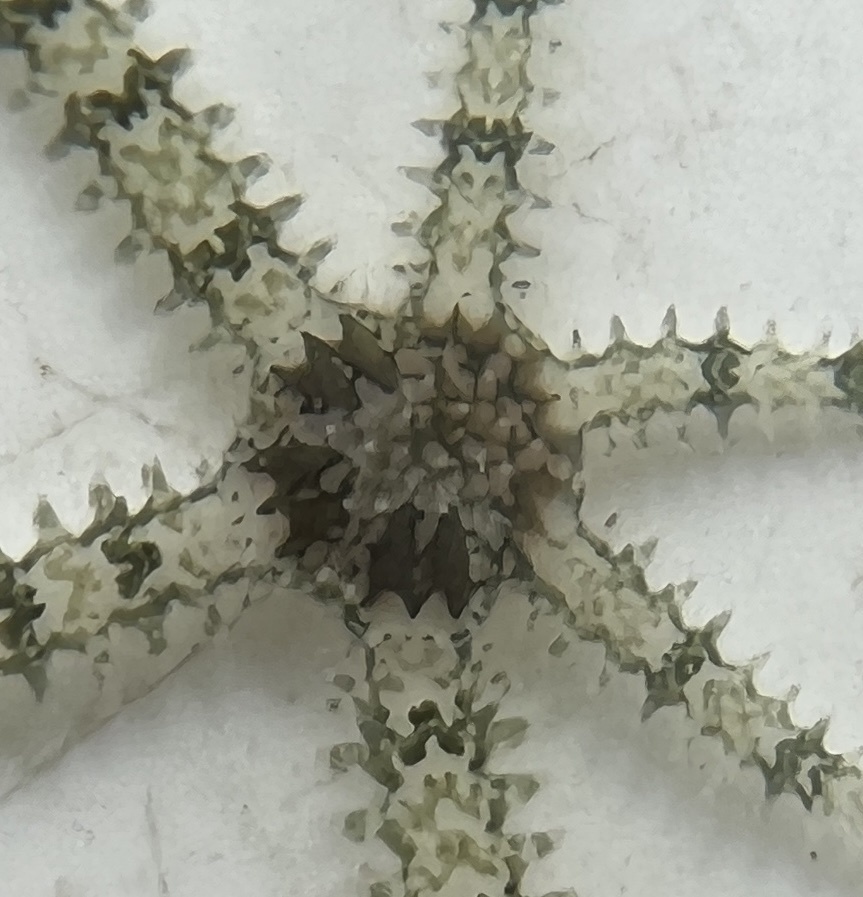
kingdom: Animalia
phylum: Echinodermata
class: Ophiuroidea
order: Amphilepidida
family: Ophiactidae
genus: Ophiactis
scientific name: Ophiactis savignyi
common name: Savigny's brittle star
